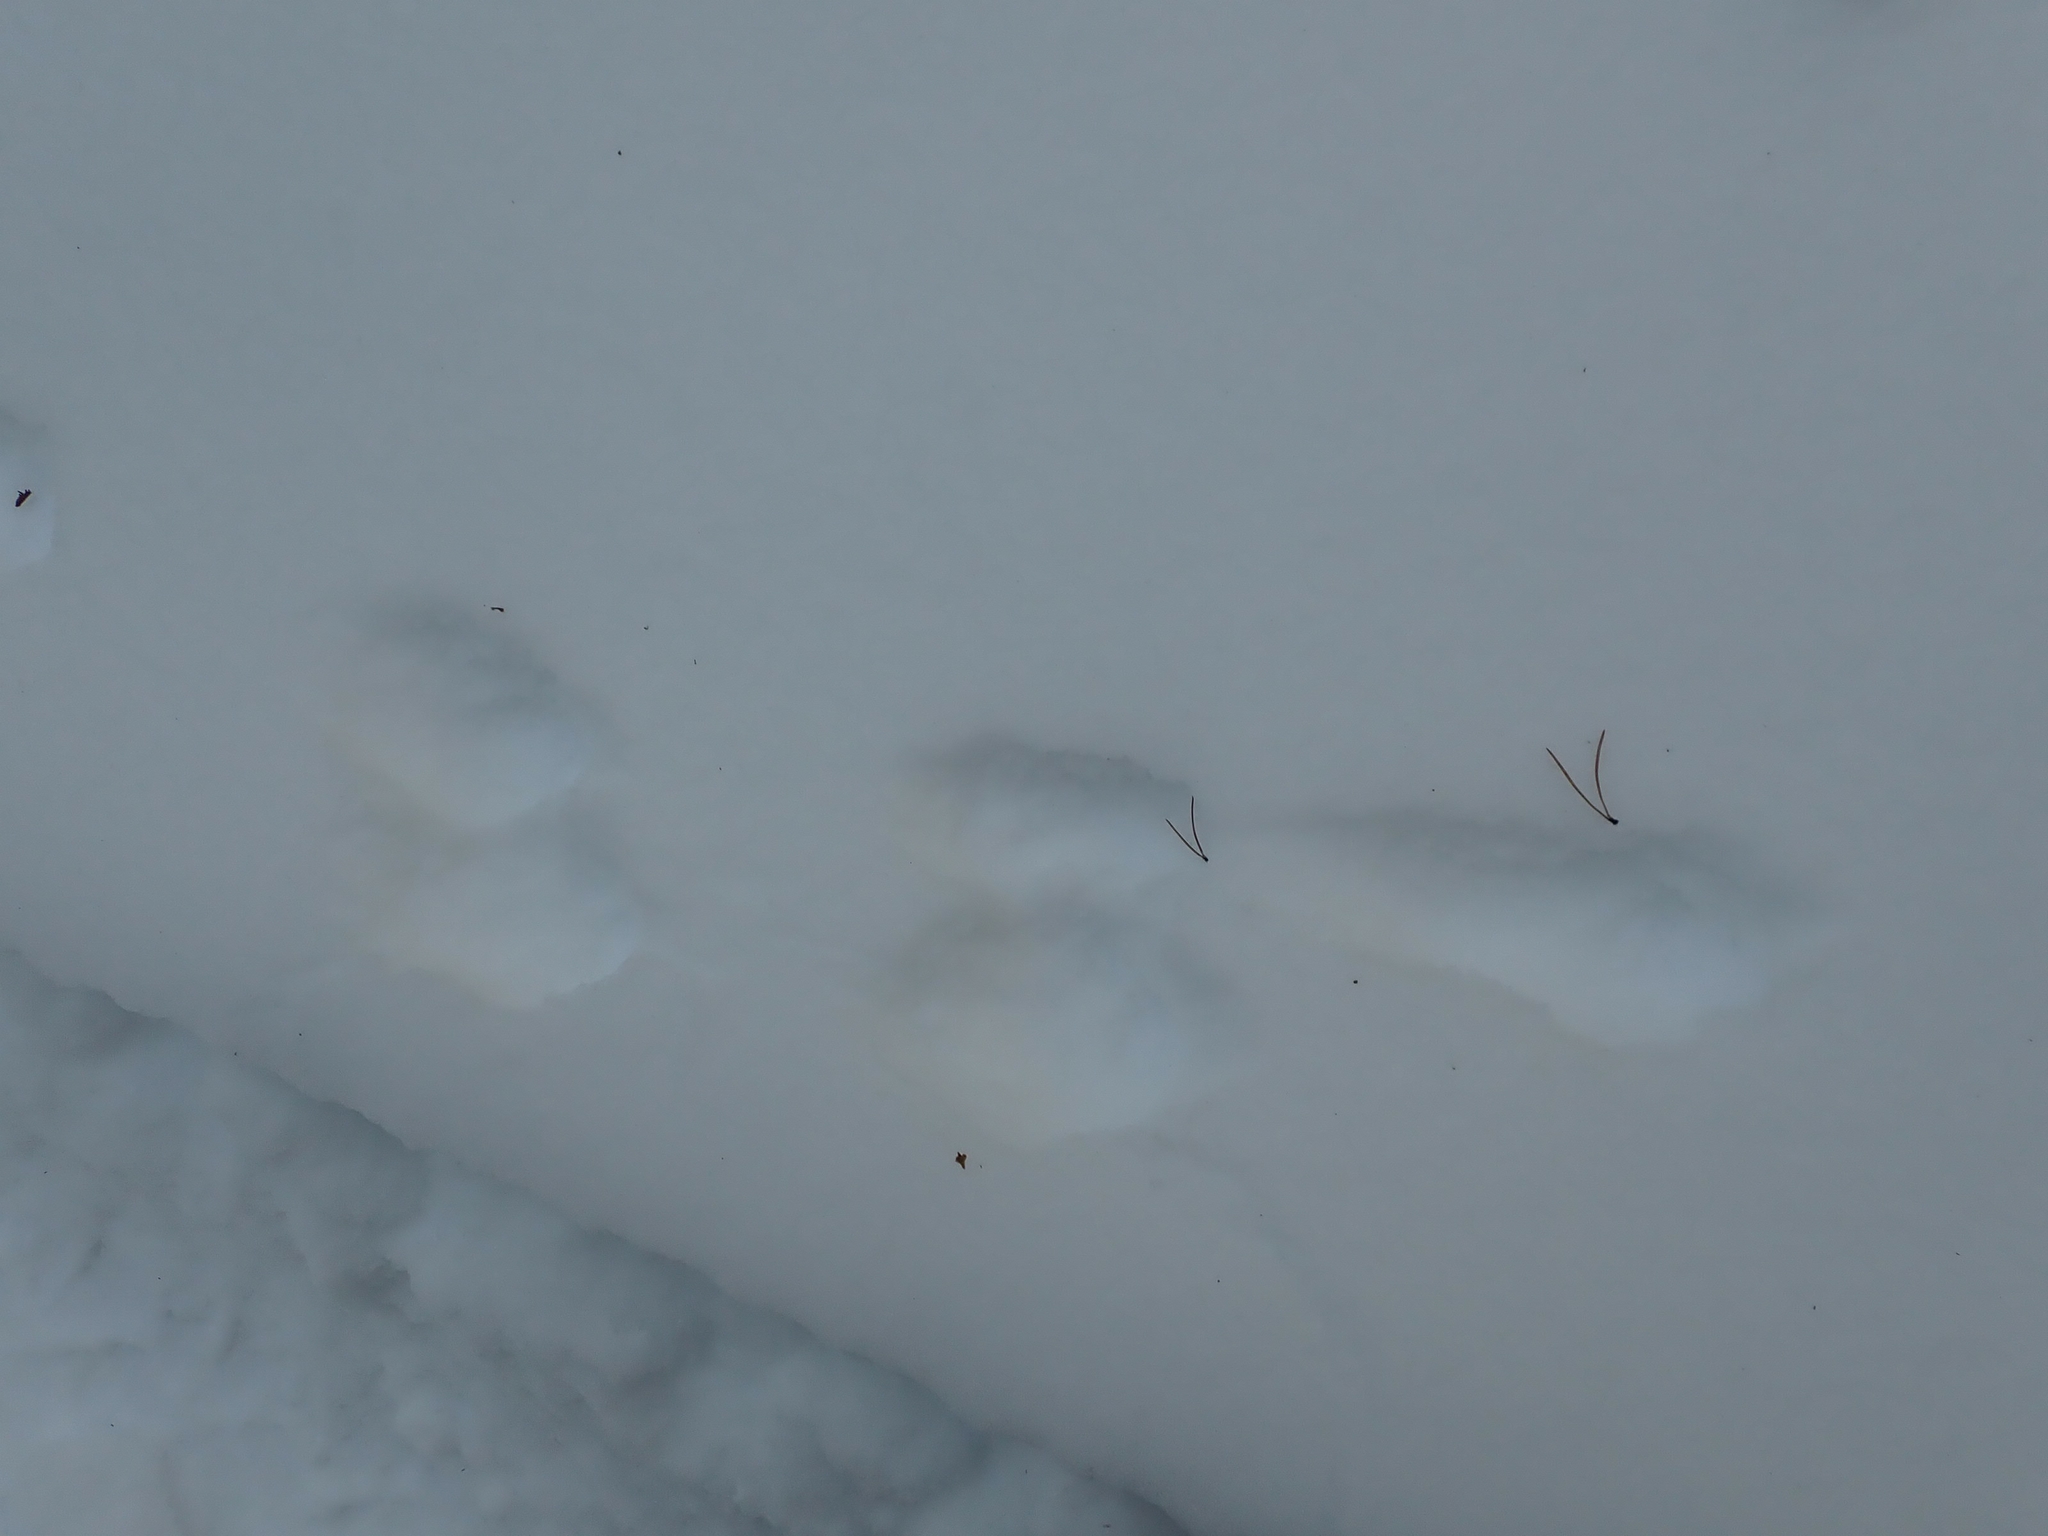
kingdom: Animalia
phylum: Chordata
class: Mammalia
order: Carnivora
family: Mustelidae
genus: Martes
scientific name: Martes americana
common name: American marten
